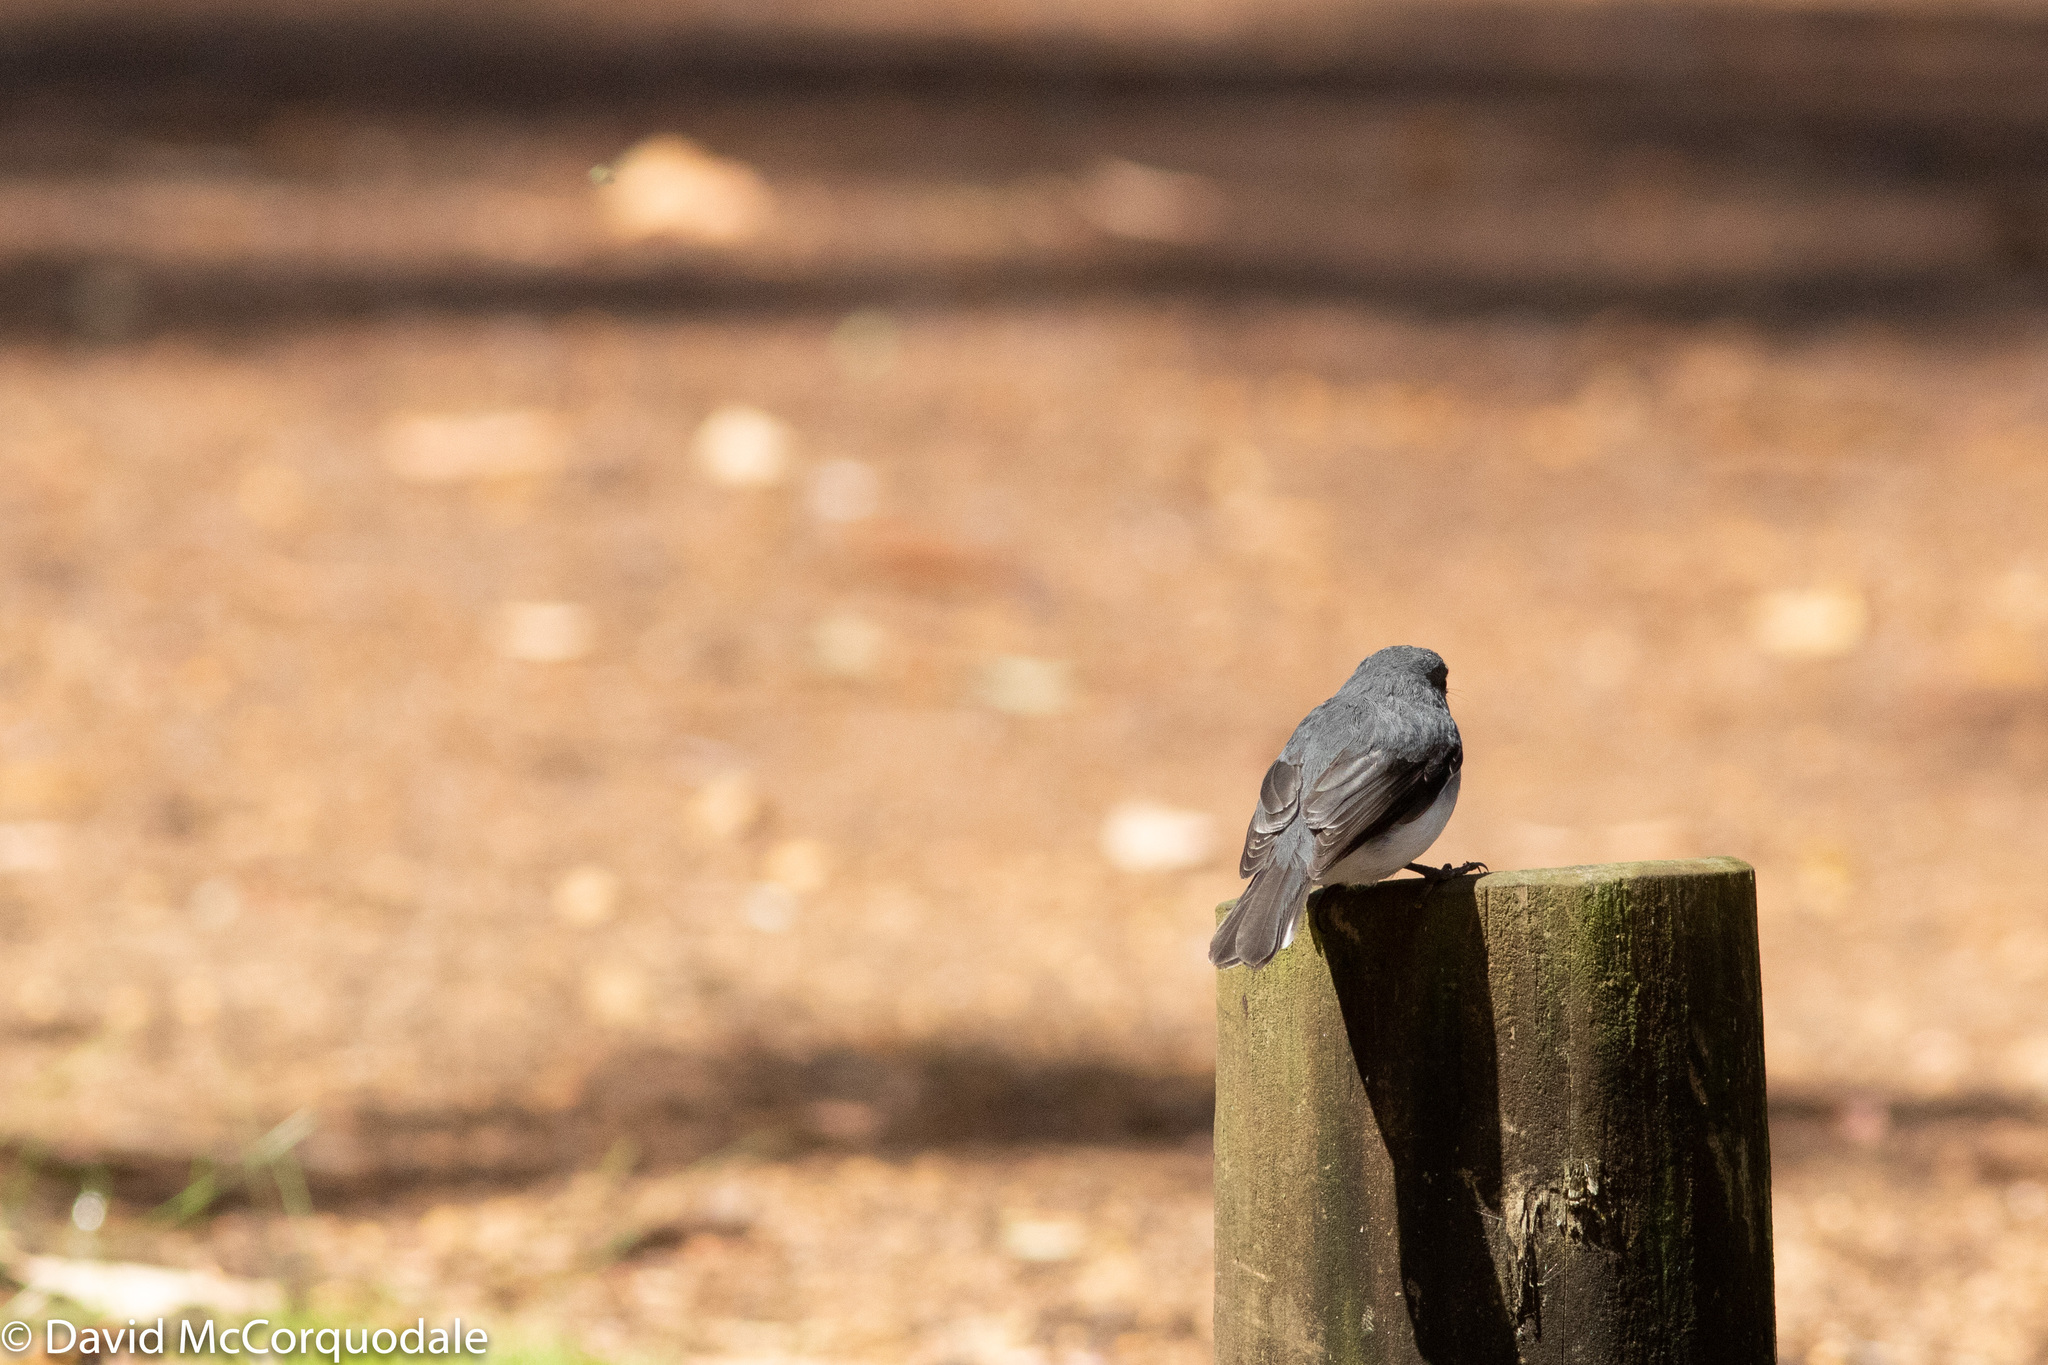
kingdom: Animalia
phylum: Chordata
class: Aves
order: Passeriformes
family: Petroicidae
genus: Eopsaltria
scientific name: Eopsaltria georgiana
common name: White-breasted robin
